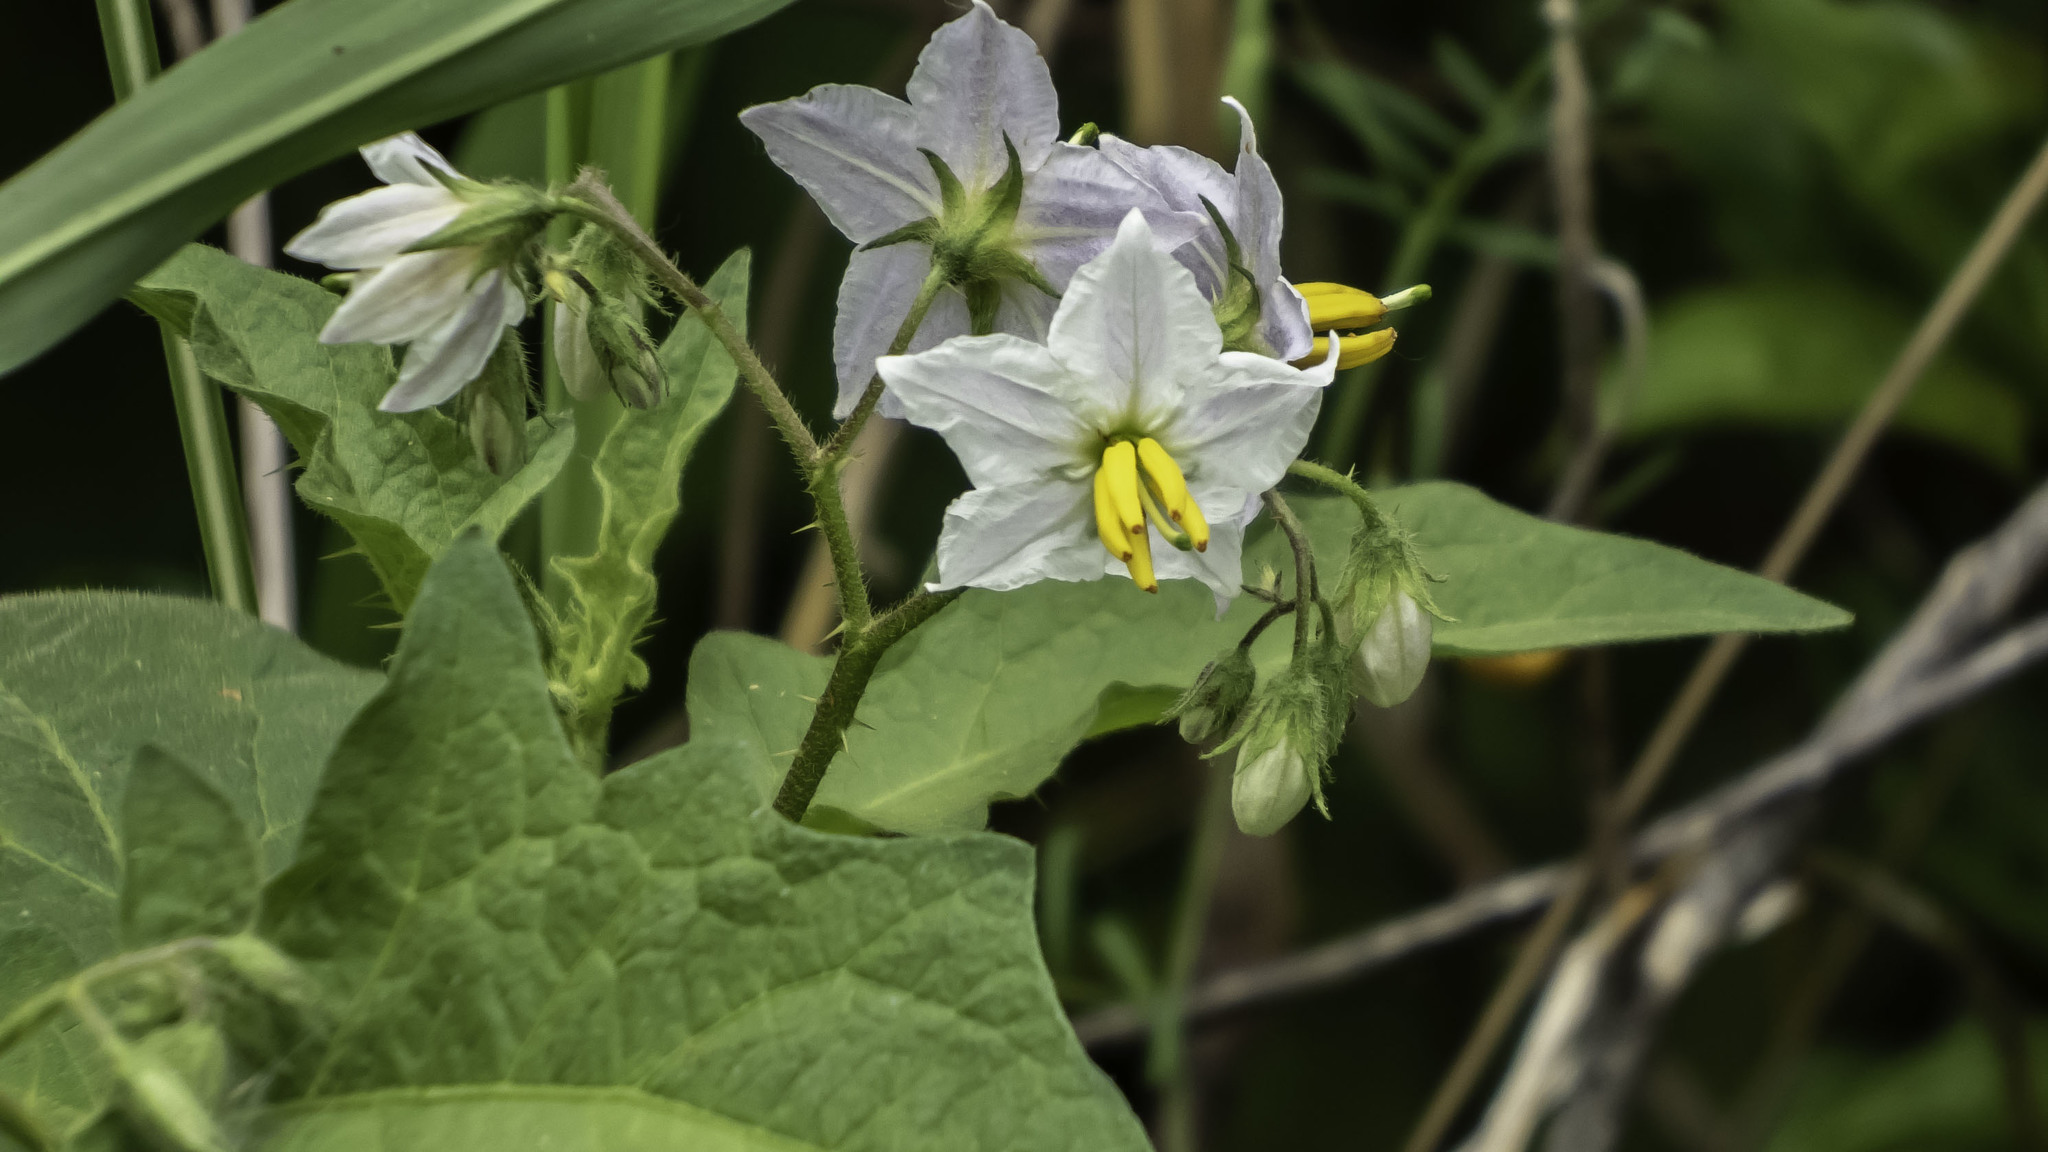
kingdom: Plantae
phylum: Tracheophyta
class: Magnoliopsida
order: Solanales
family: Solanaceae
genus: Solanum
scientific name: Solanum carolinense
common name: Horse-nettle
